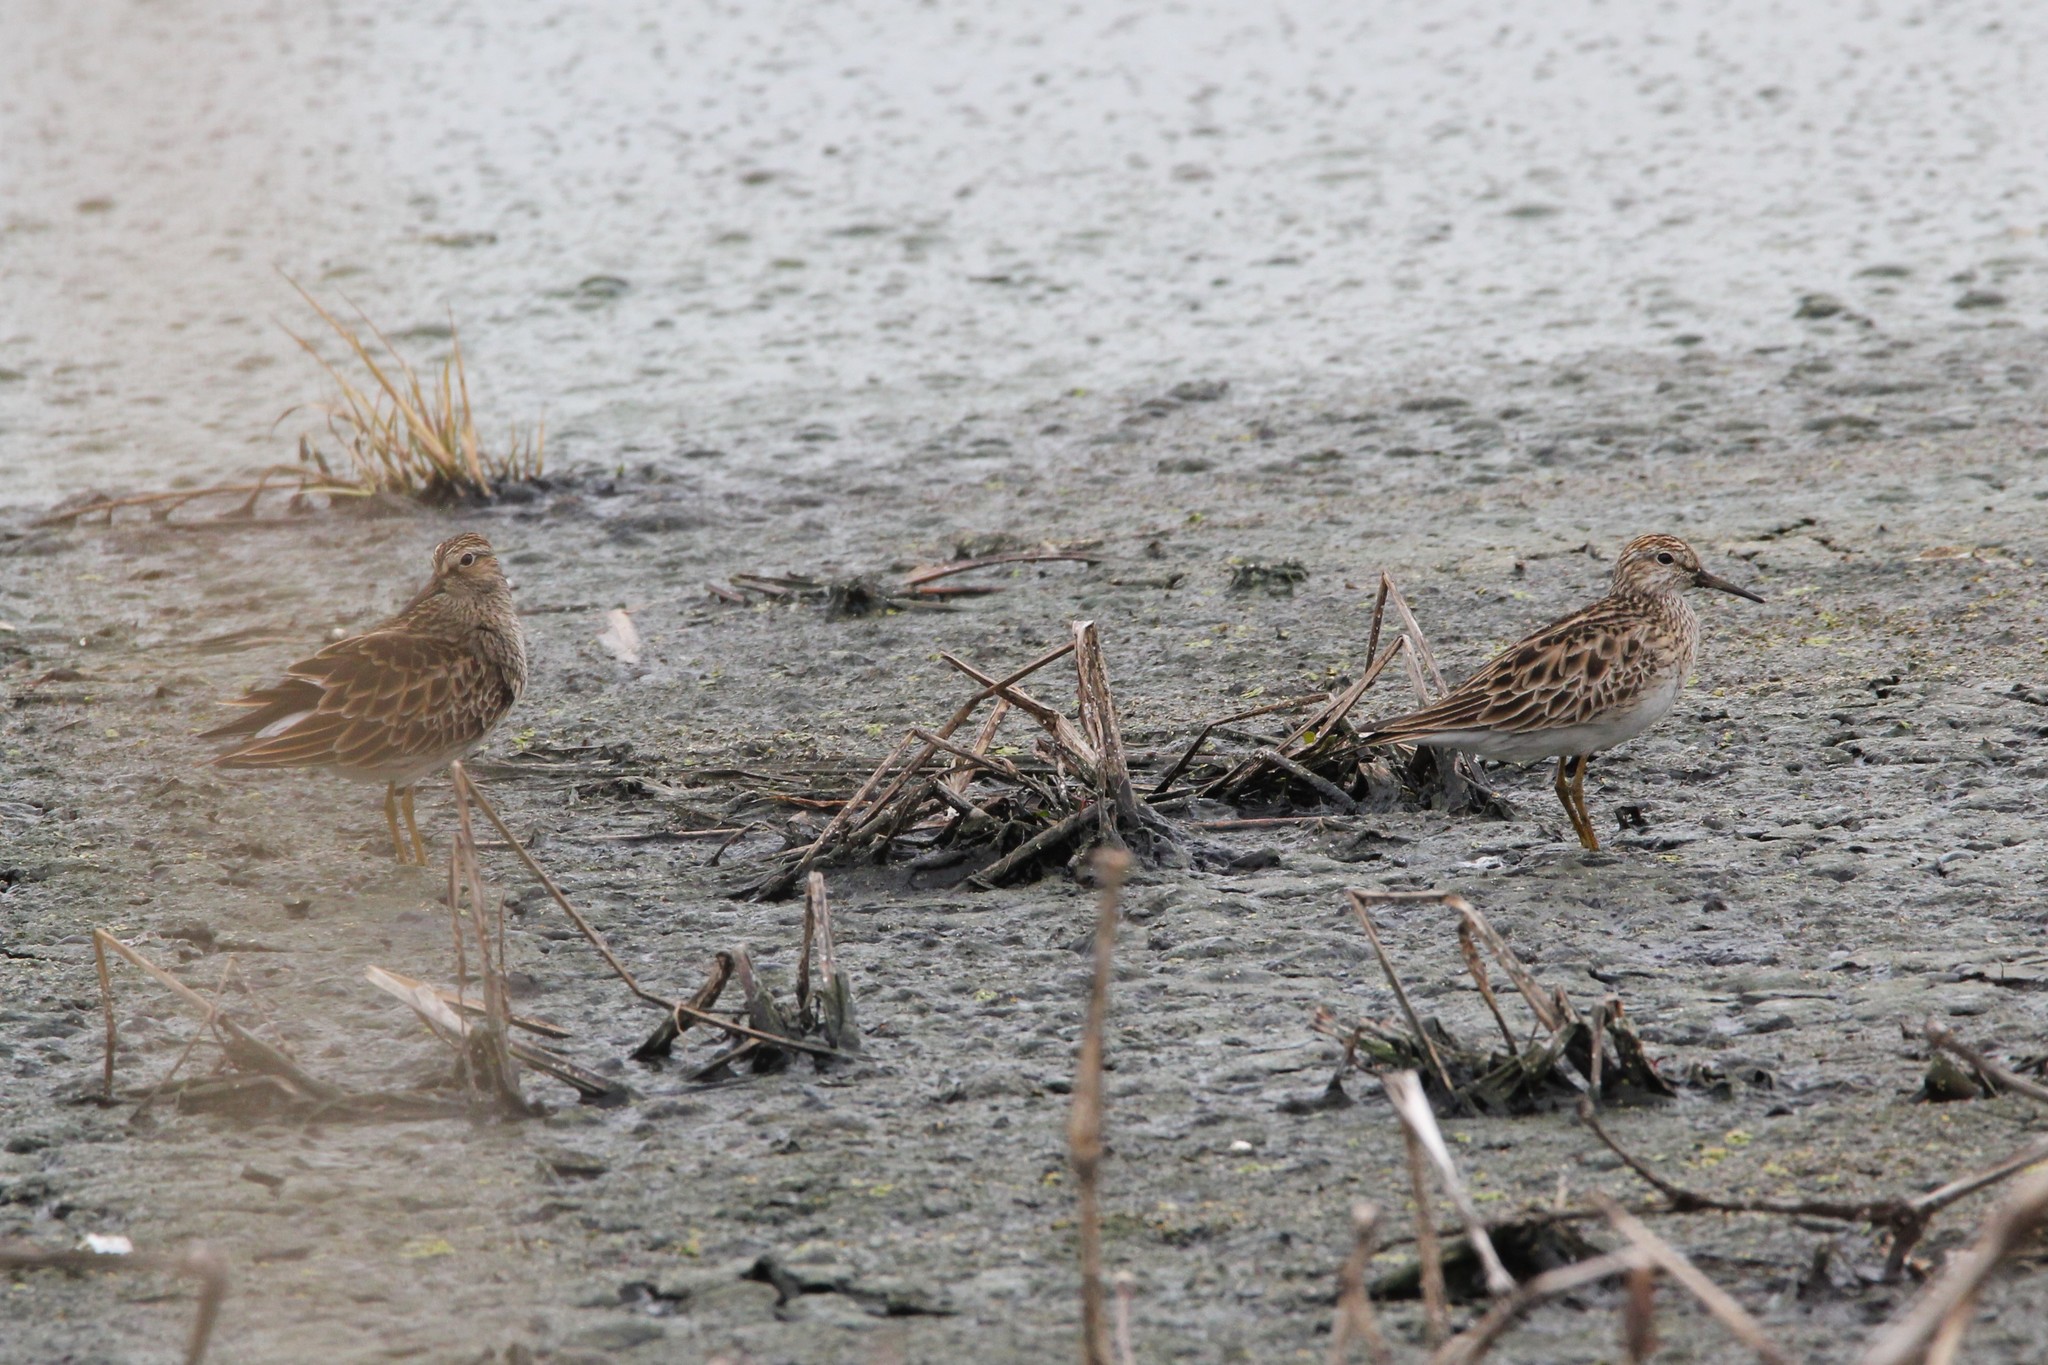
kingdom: Animalia
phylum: Chordata
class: Aves
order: Charadriiformes
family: Scolopacidae
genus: Calidris
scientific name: Calidris melanotos
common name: Pectoral sandpiper
